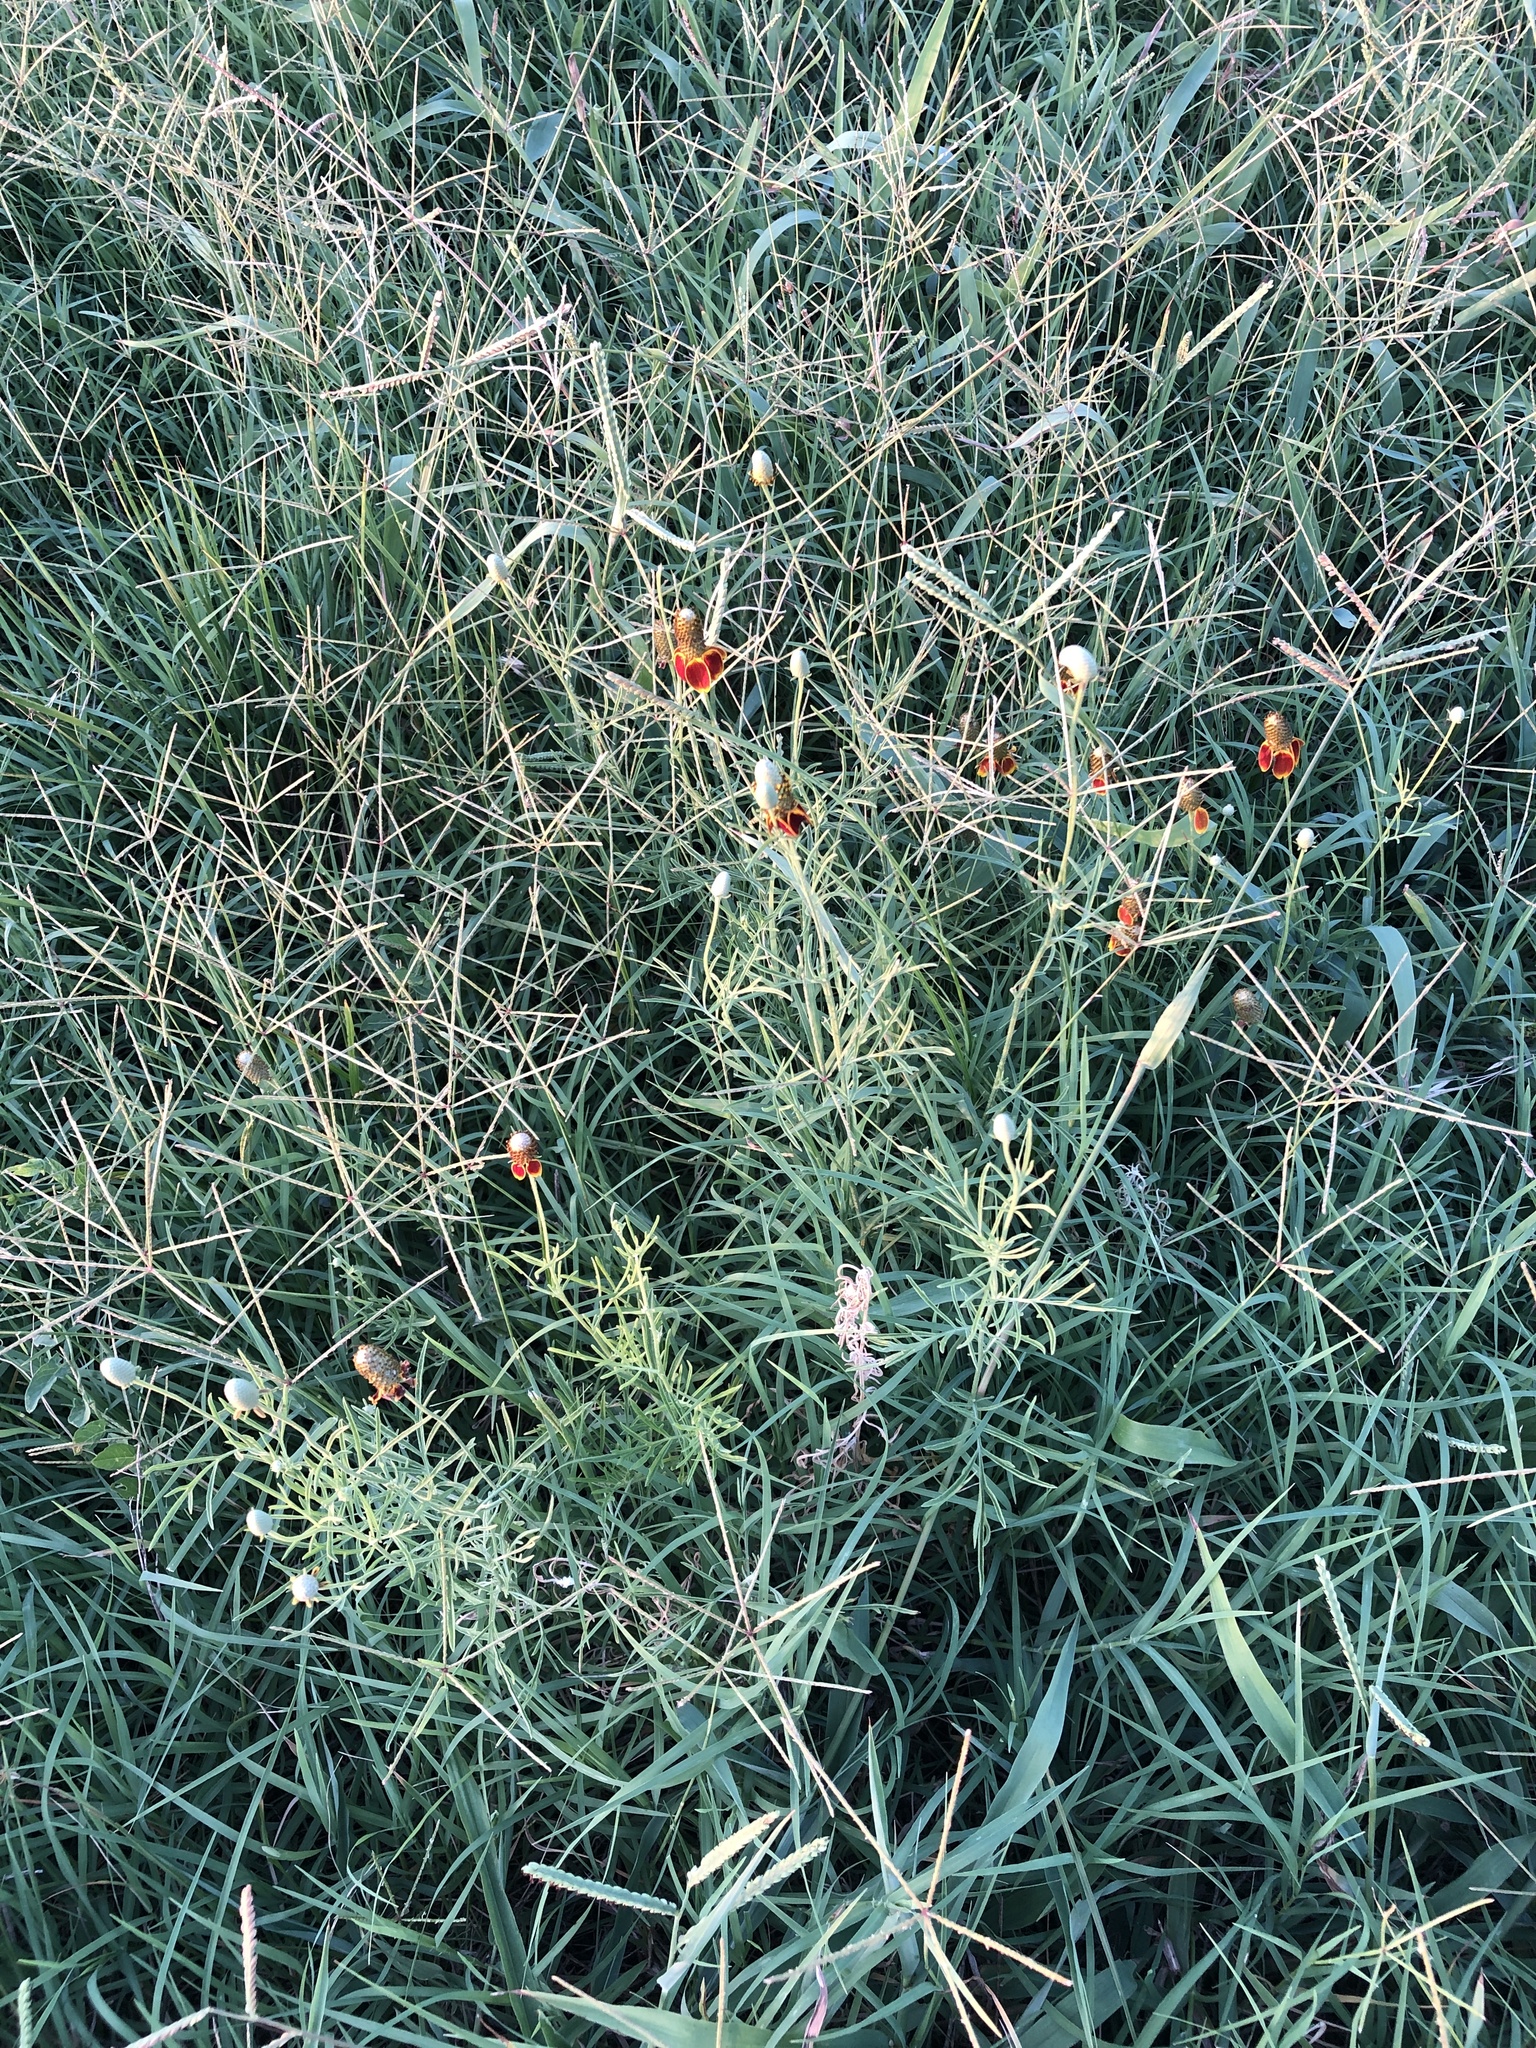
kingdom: Plantae
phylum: Tracheophyta
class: Magnoliopsida
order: Asterales
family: Asteraceae
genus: Ratibida
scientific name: Ratibida columnifera
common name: Prairie coneflower
